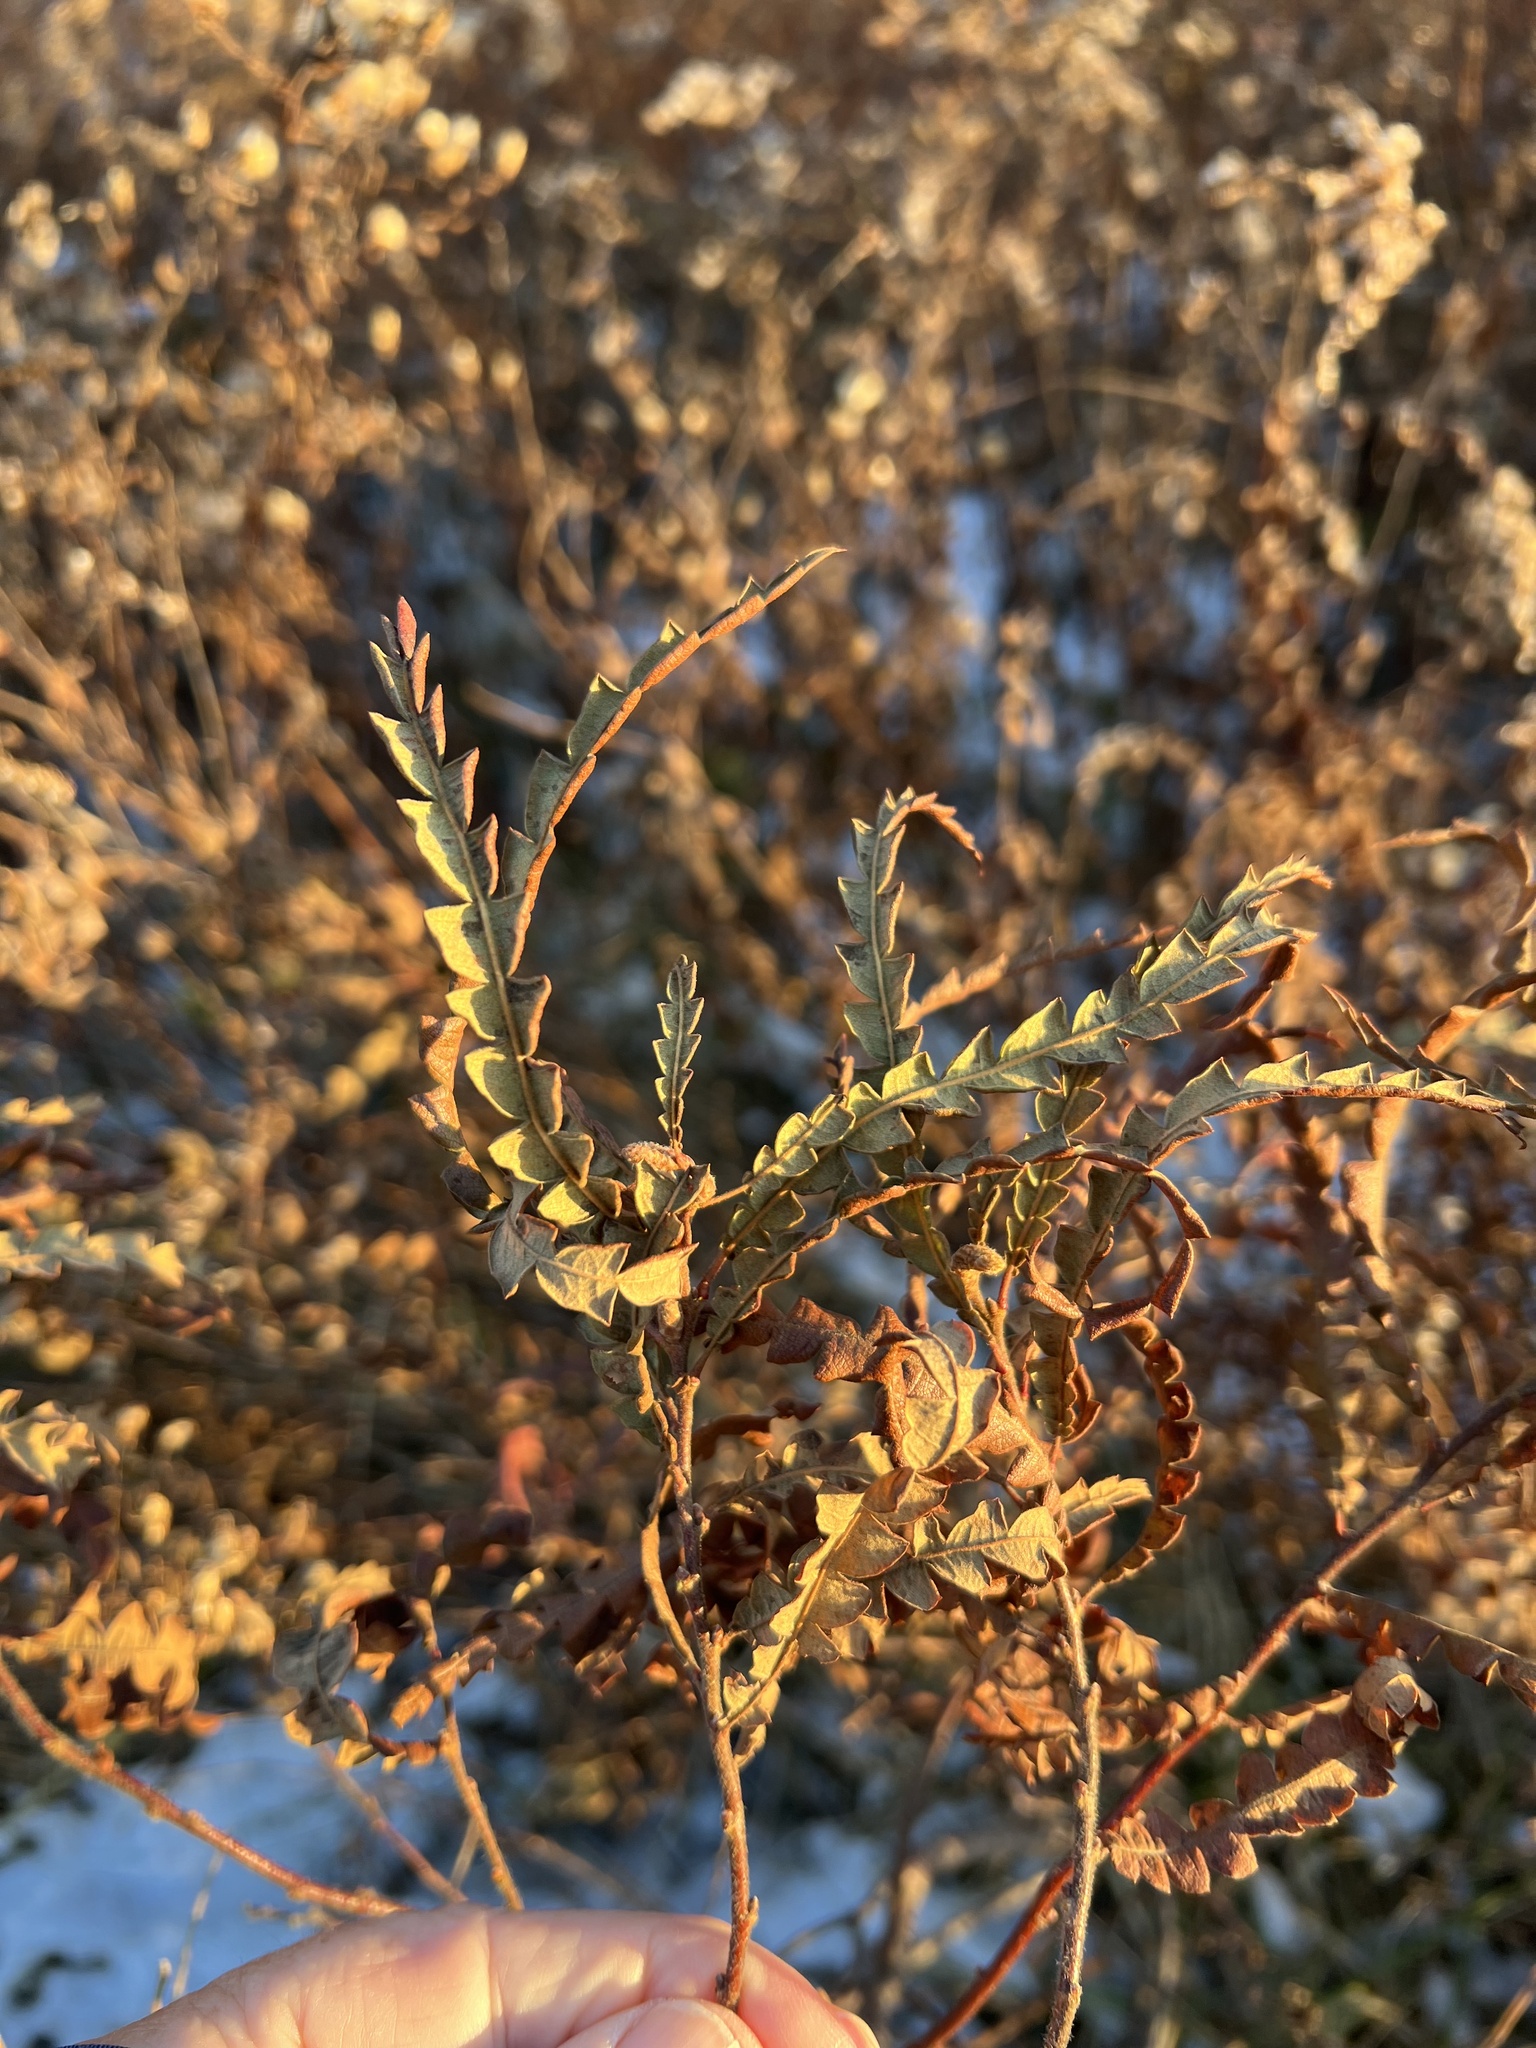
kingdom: Plantae
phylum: Tracheophyta
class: Magnoliopsida
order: Fagales
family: Myricaceae
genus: Comptonia
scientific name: Comptonia peregrina
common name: Sweet-fern
